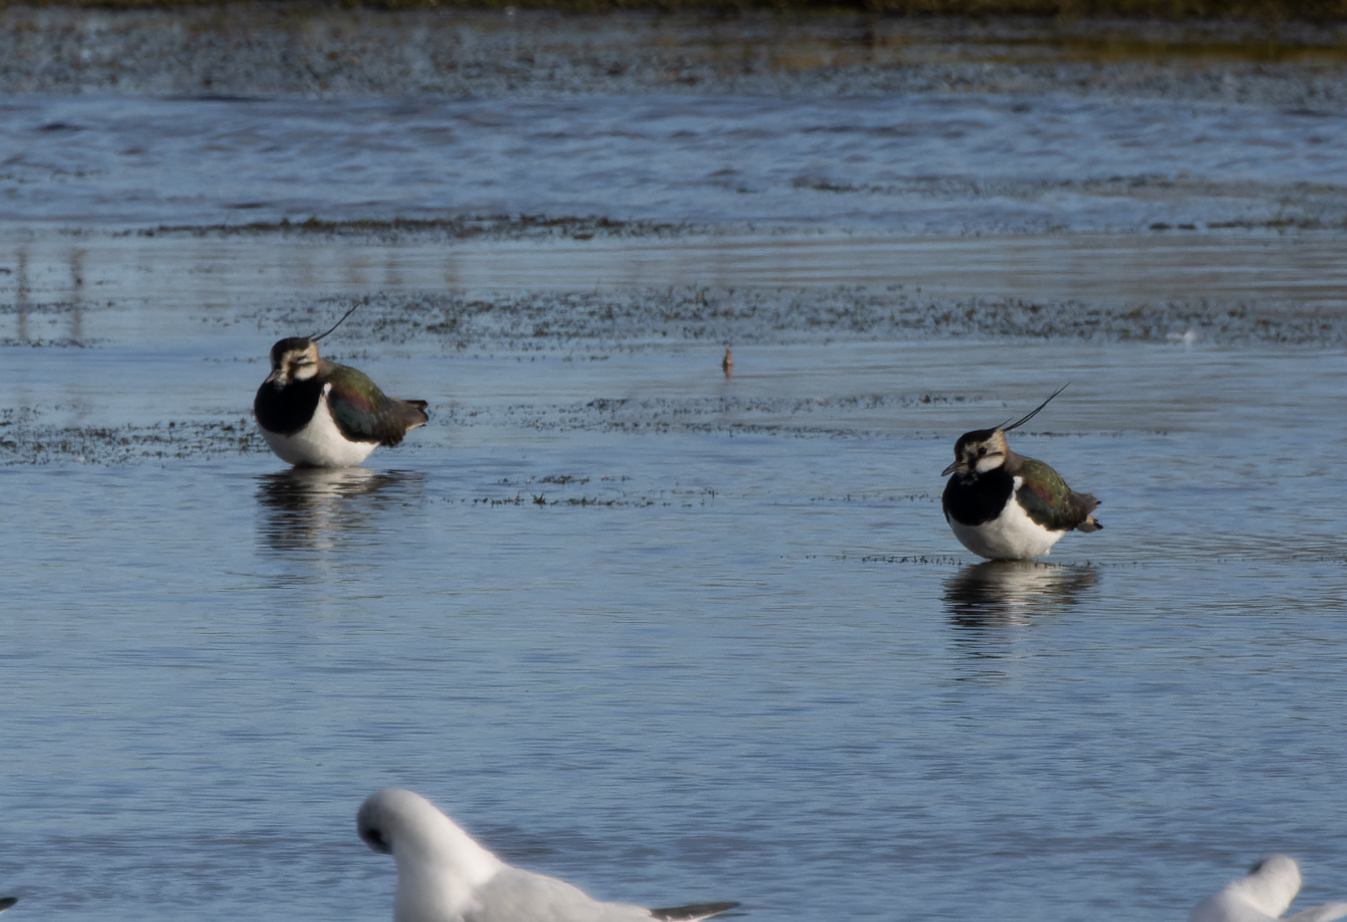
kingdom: Animalia
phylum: Chordata
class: Aves
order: Charadriiformes
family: Charadriidae
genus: Vanellus
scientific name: Vanellus vanellus
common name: Northern lapwing
